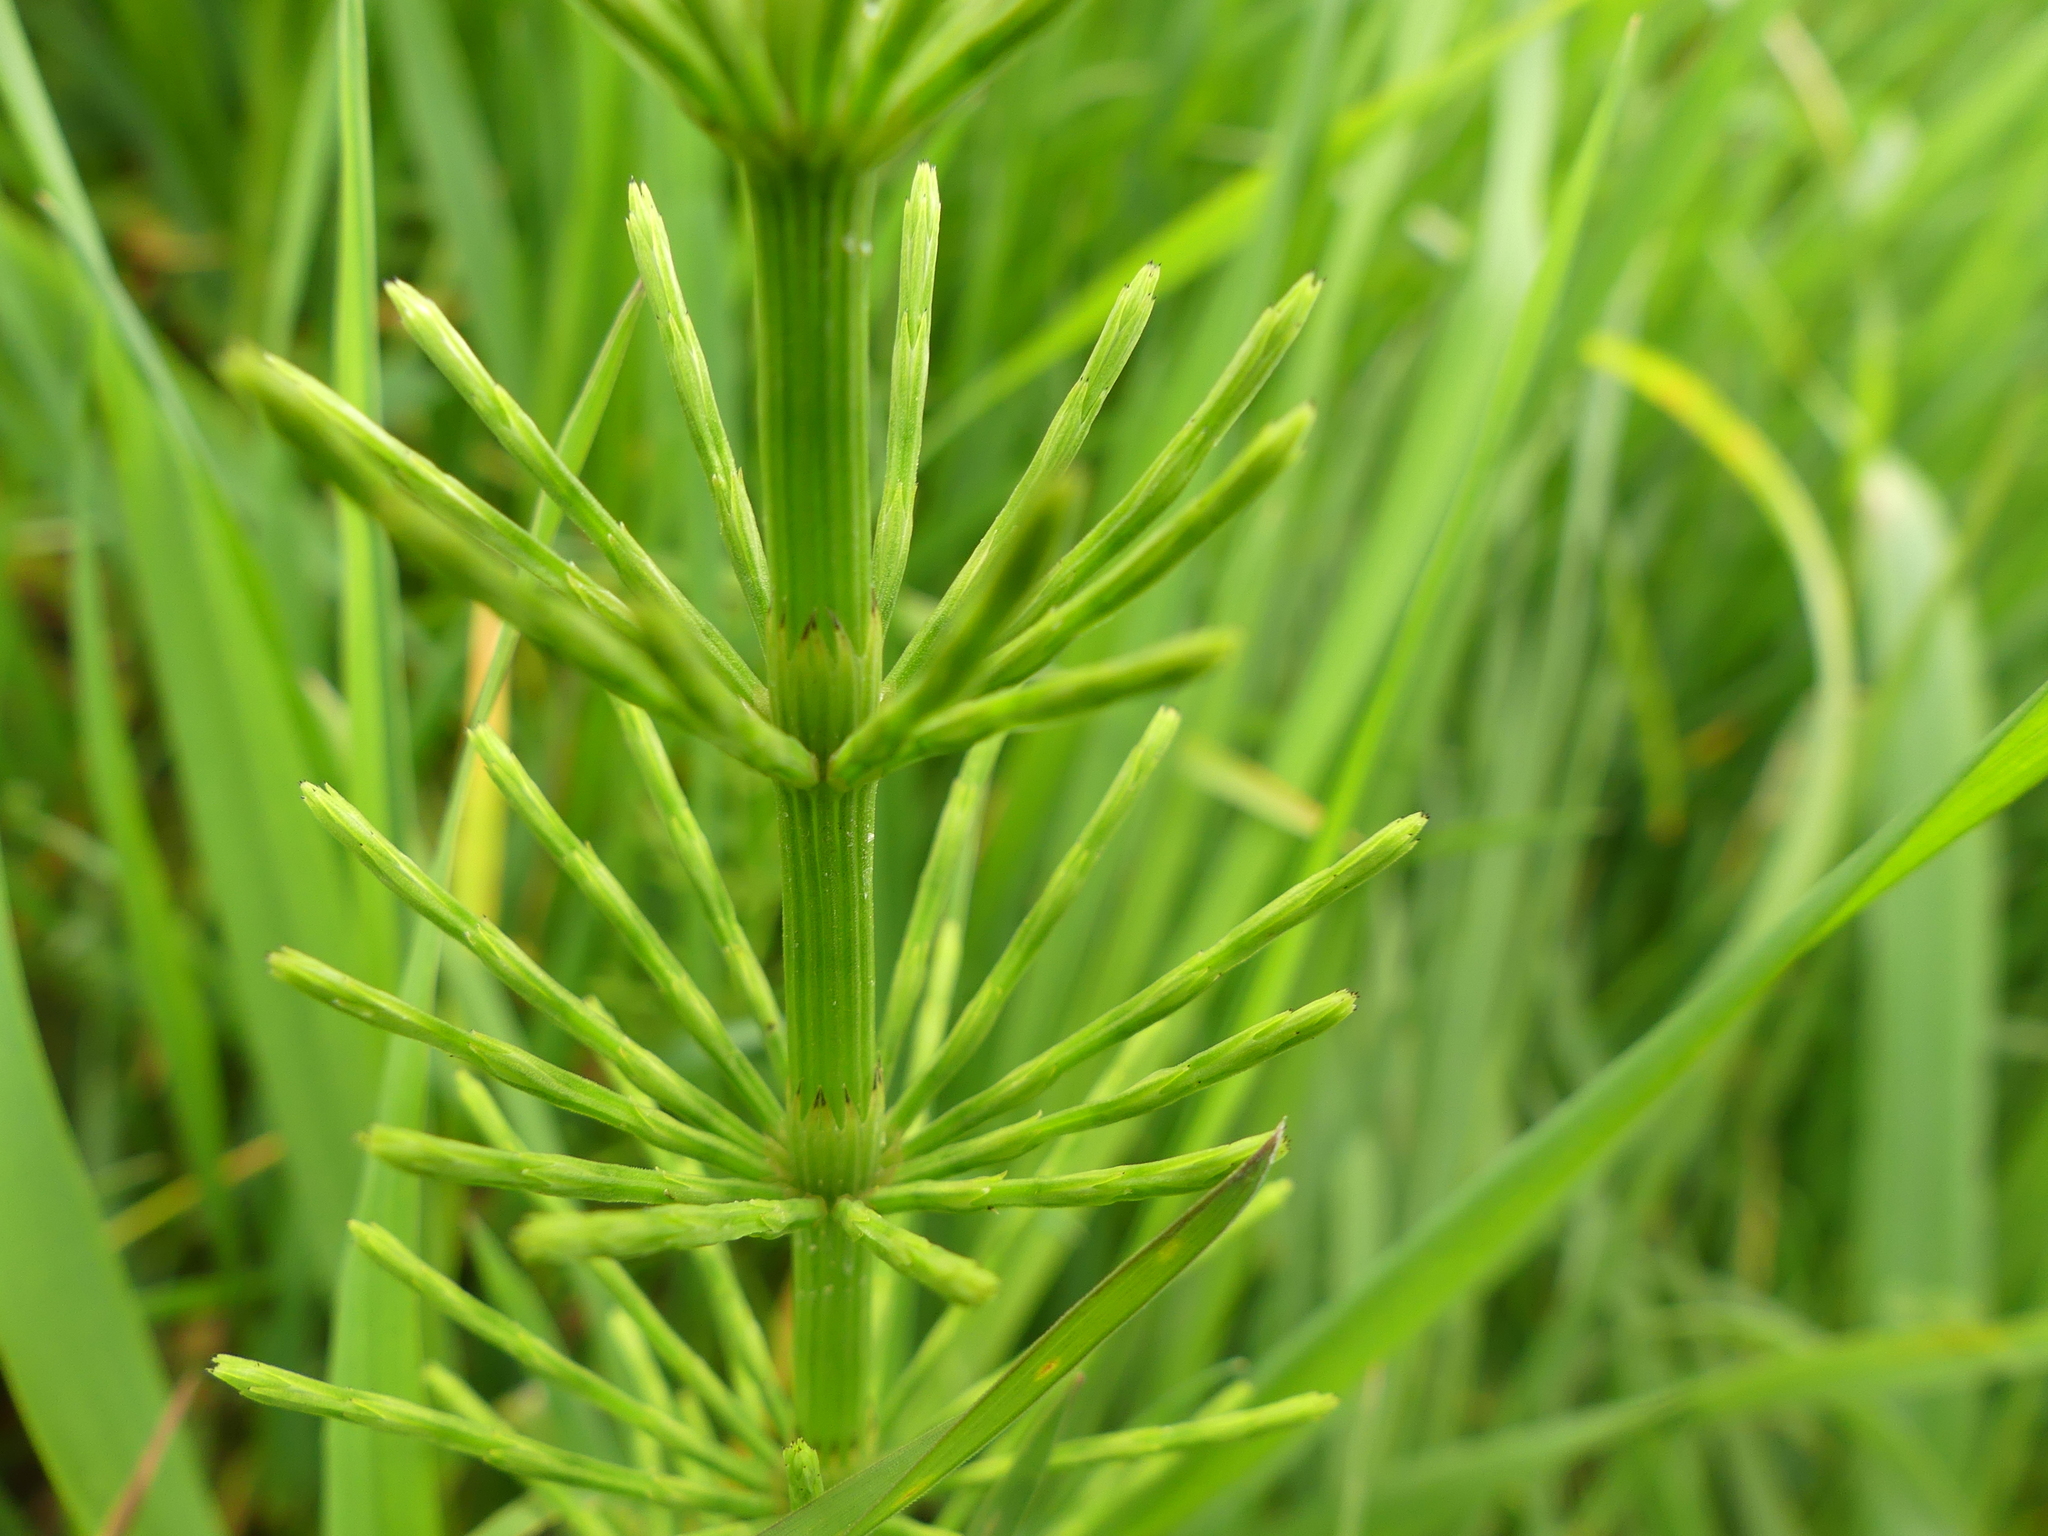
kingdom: Plantae
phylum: Tracheophyta
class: Polypodiopsida
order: Equisetales
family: Equisetaceae
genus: Equisetum
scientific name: Equisetum arvense
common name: Field horsetail
